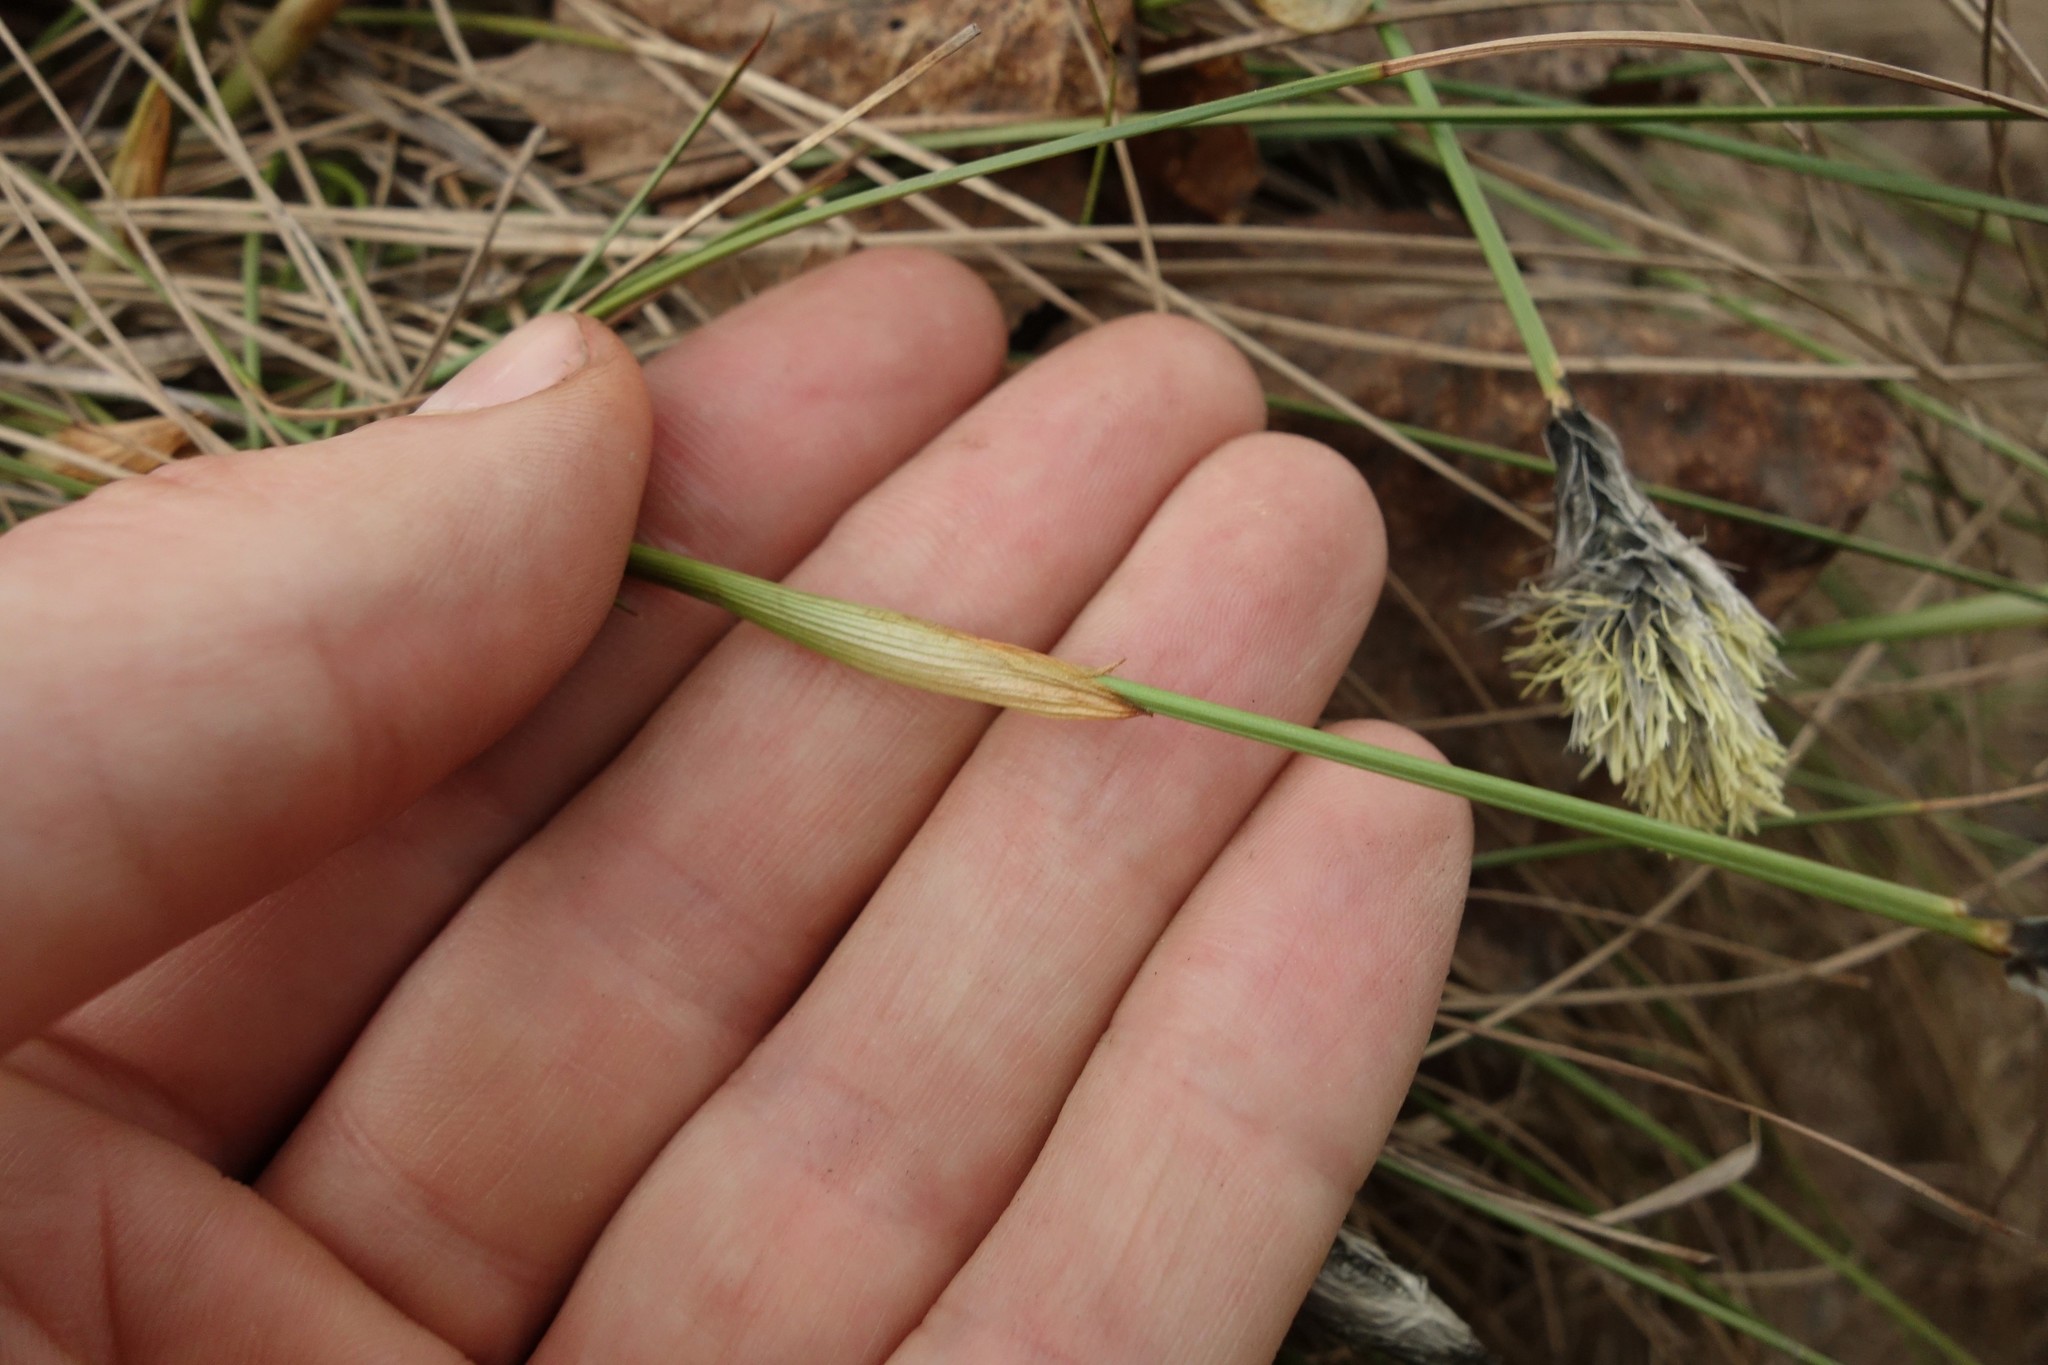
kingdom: Plantae
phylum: Tracheophyta
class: Liliopsida
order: Poales
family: Cyperaceae
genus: Eriophorum
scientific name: Eriophorum vaginatum
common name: Hare's-tail cottongrass
